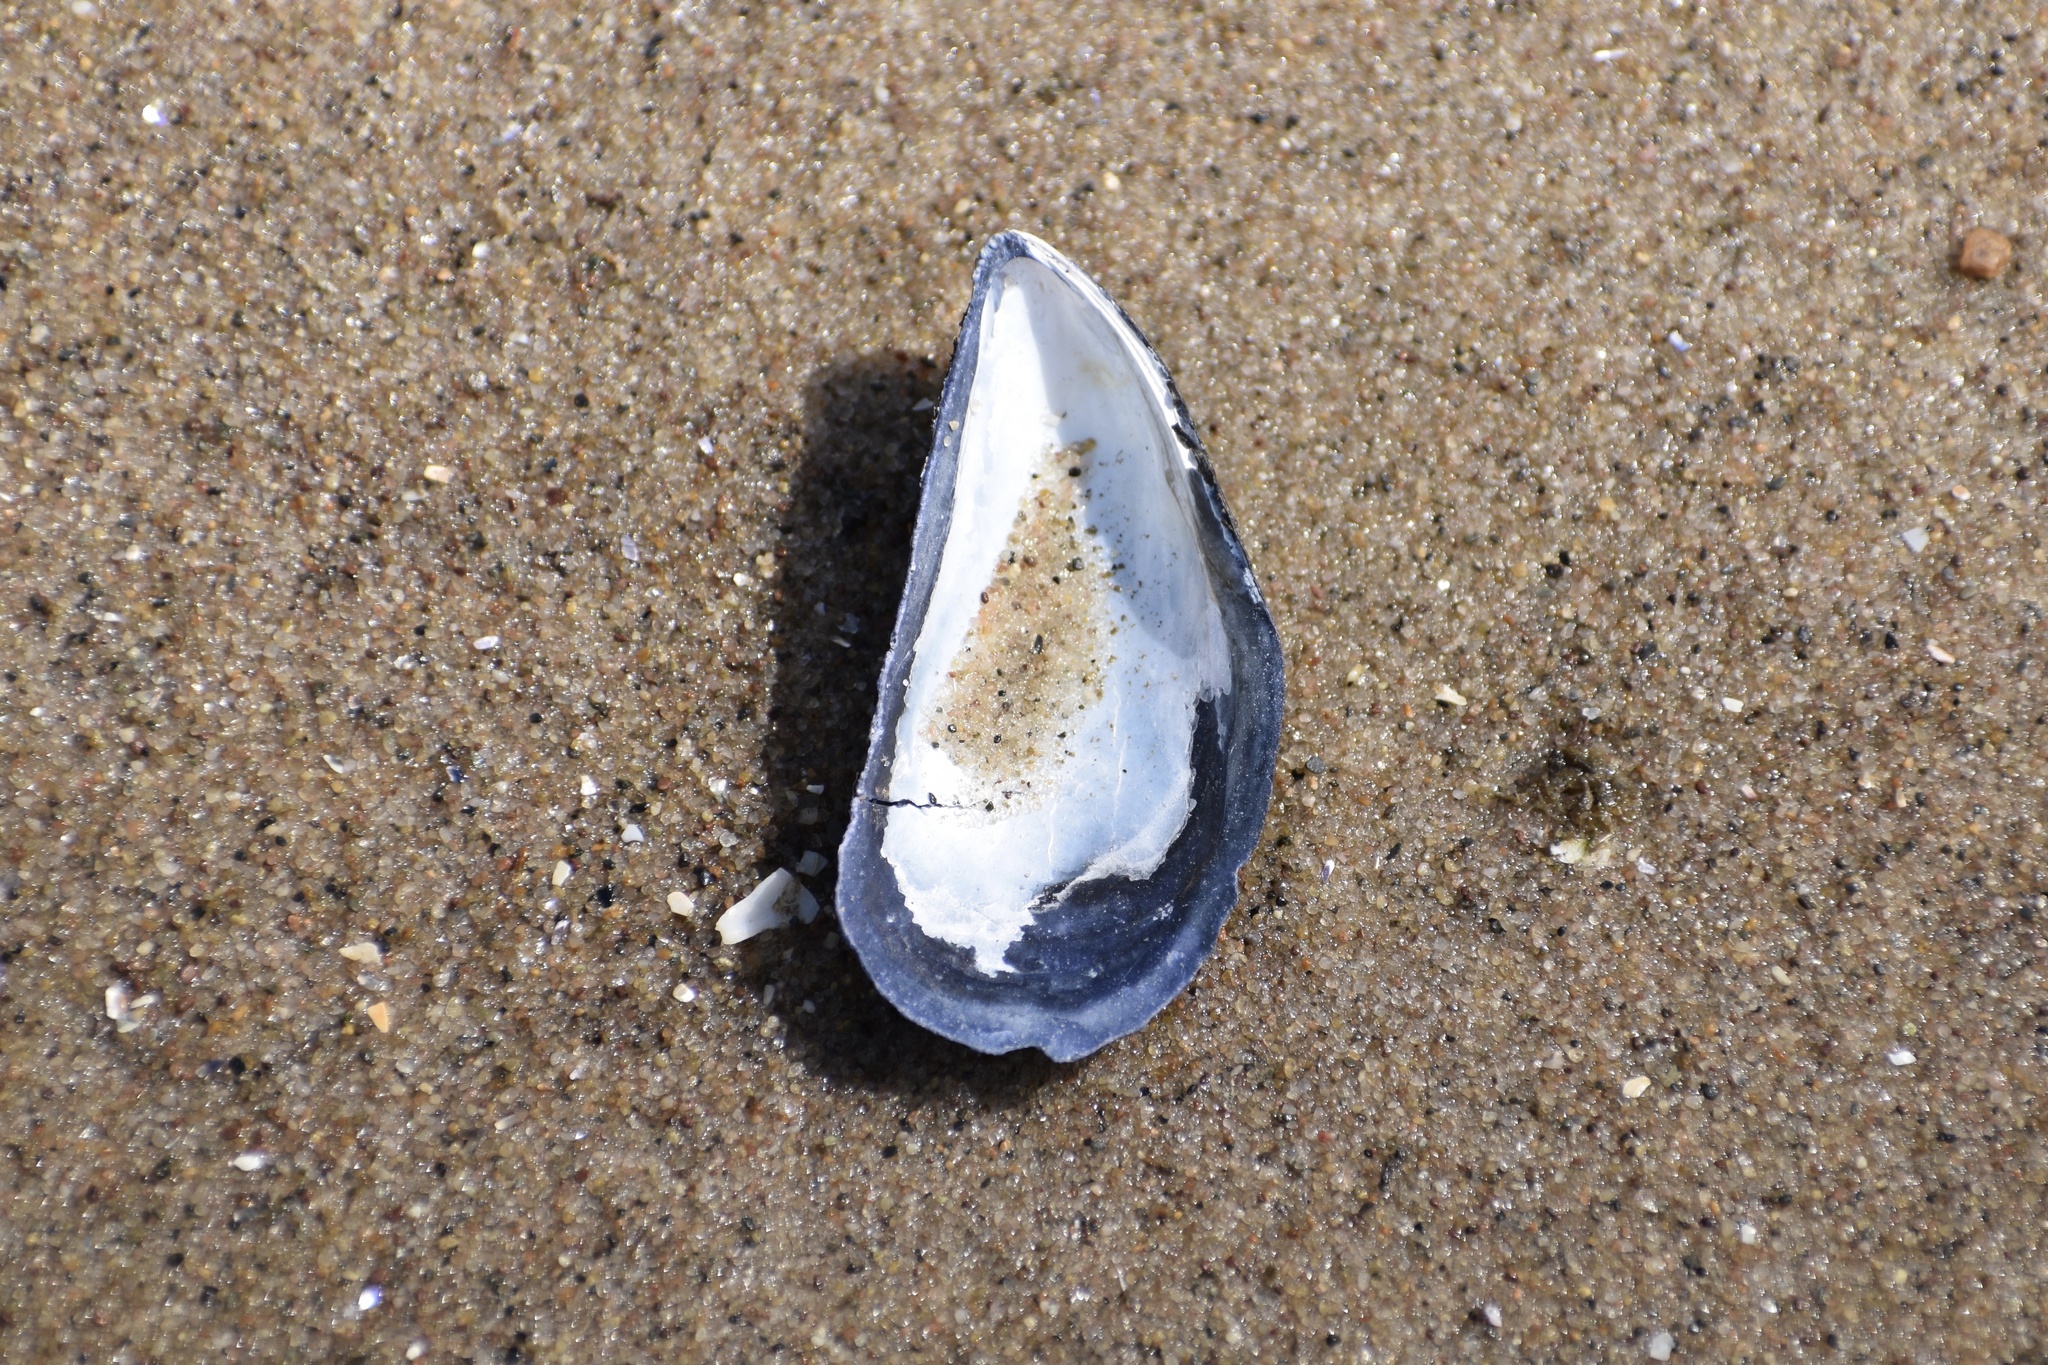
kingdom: Animalia
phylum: Mollusca
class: Bivalvia
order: Mytilida
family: Mytilidae
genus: Mytilus
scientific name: Mytilus edulis
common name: Blue mussel
